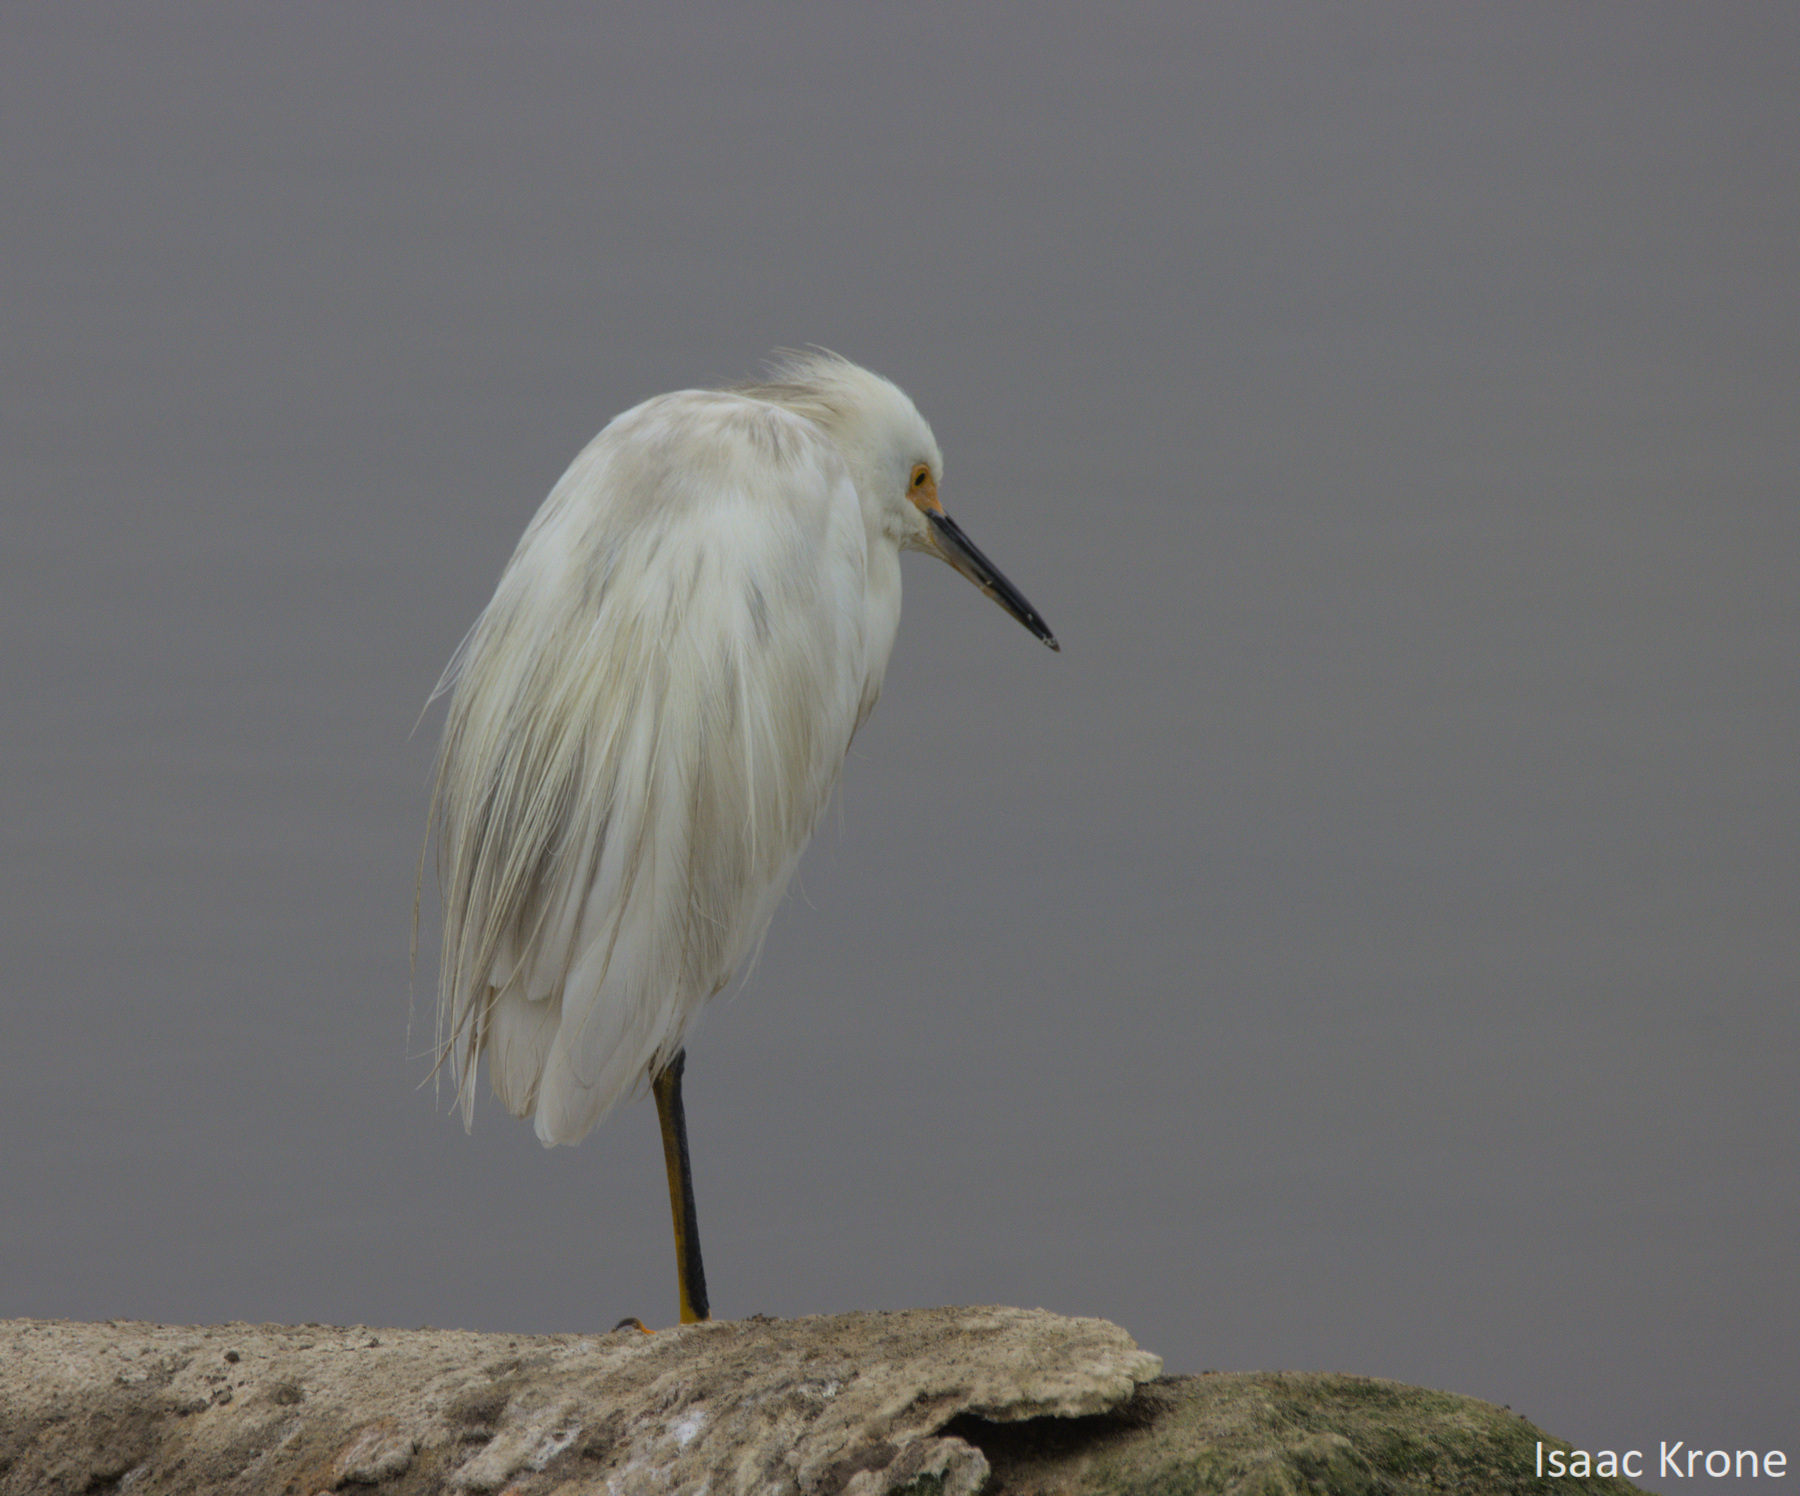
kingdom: Animalia
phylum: Chordata
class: Aves
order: Pelecaniformes
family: Ardeidae
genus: Egretta
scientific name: Egretta thula
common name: Snowy egret
